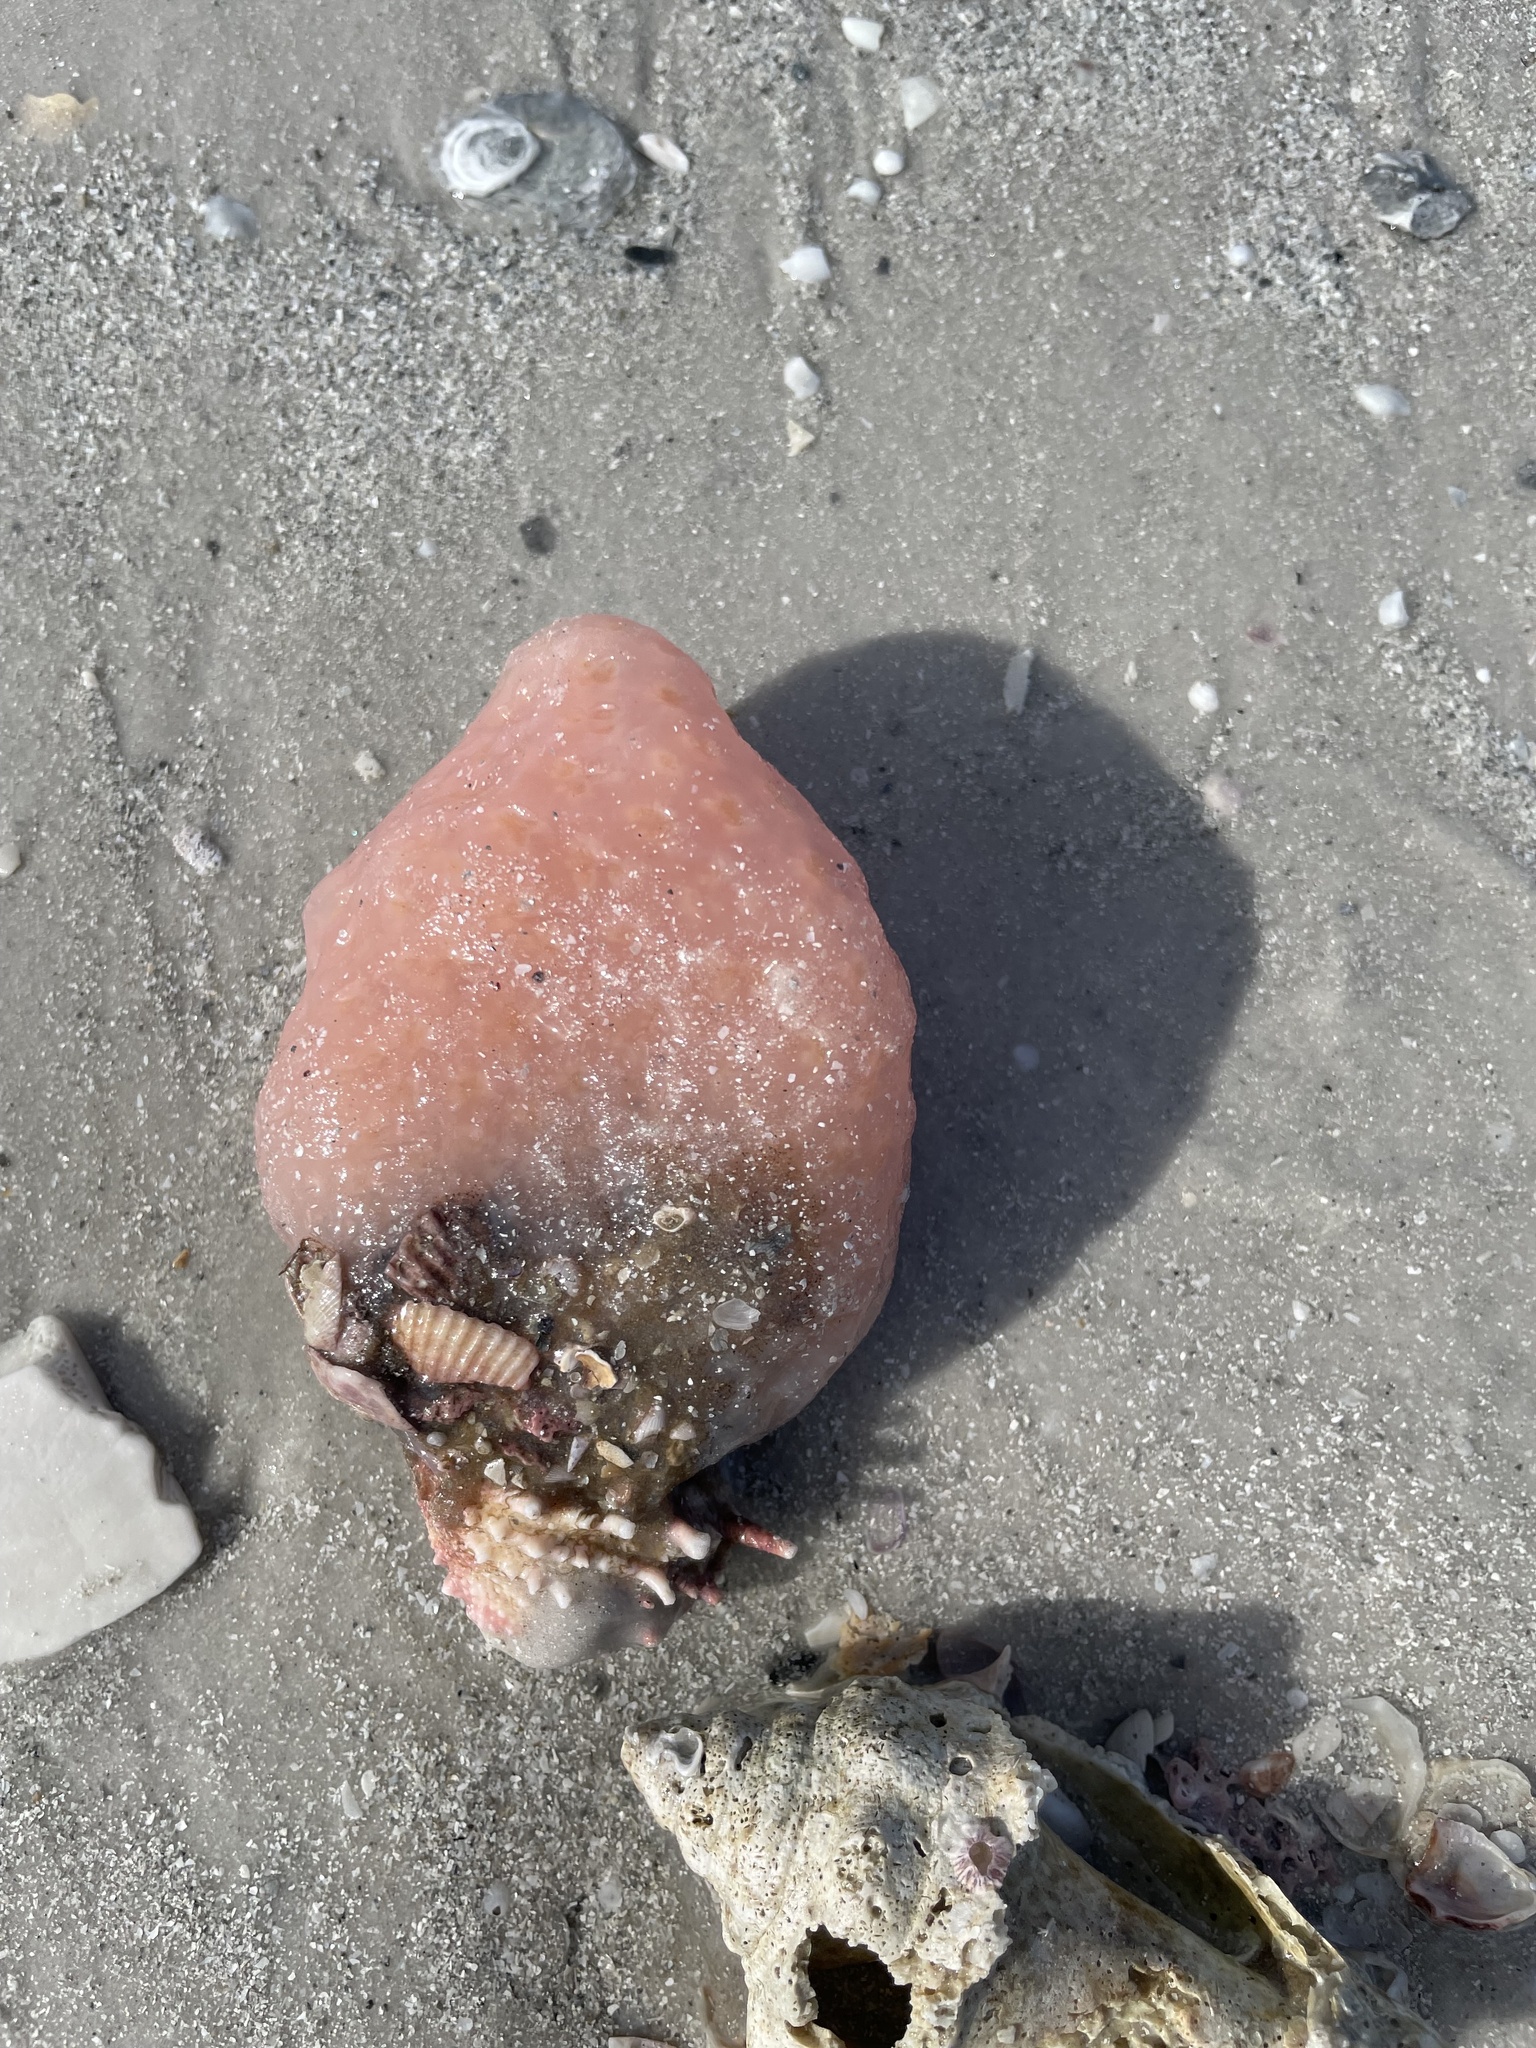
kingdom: Animalia
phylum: Chordata
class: Ascidiacea
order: Aplousobranchia
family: Polyclinidae
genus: Aplidium
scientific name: Aplidium stellatum
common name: Atlantic sea pork
